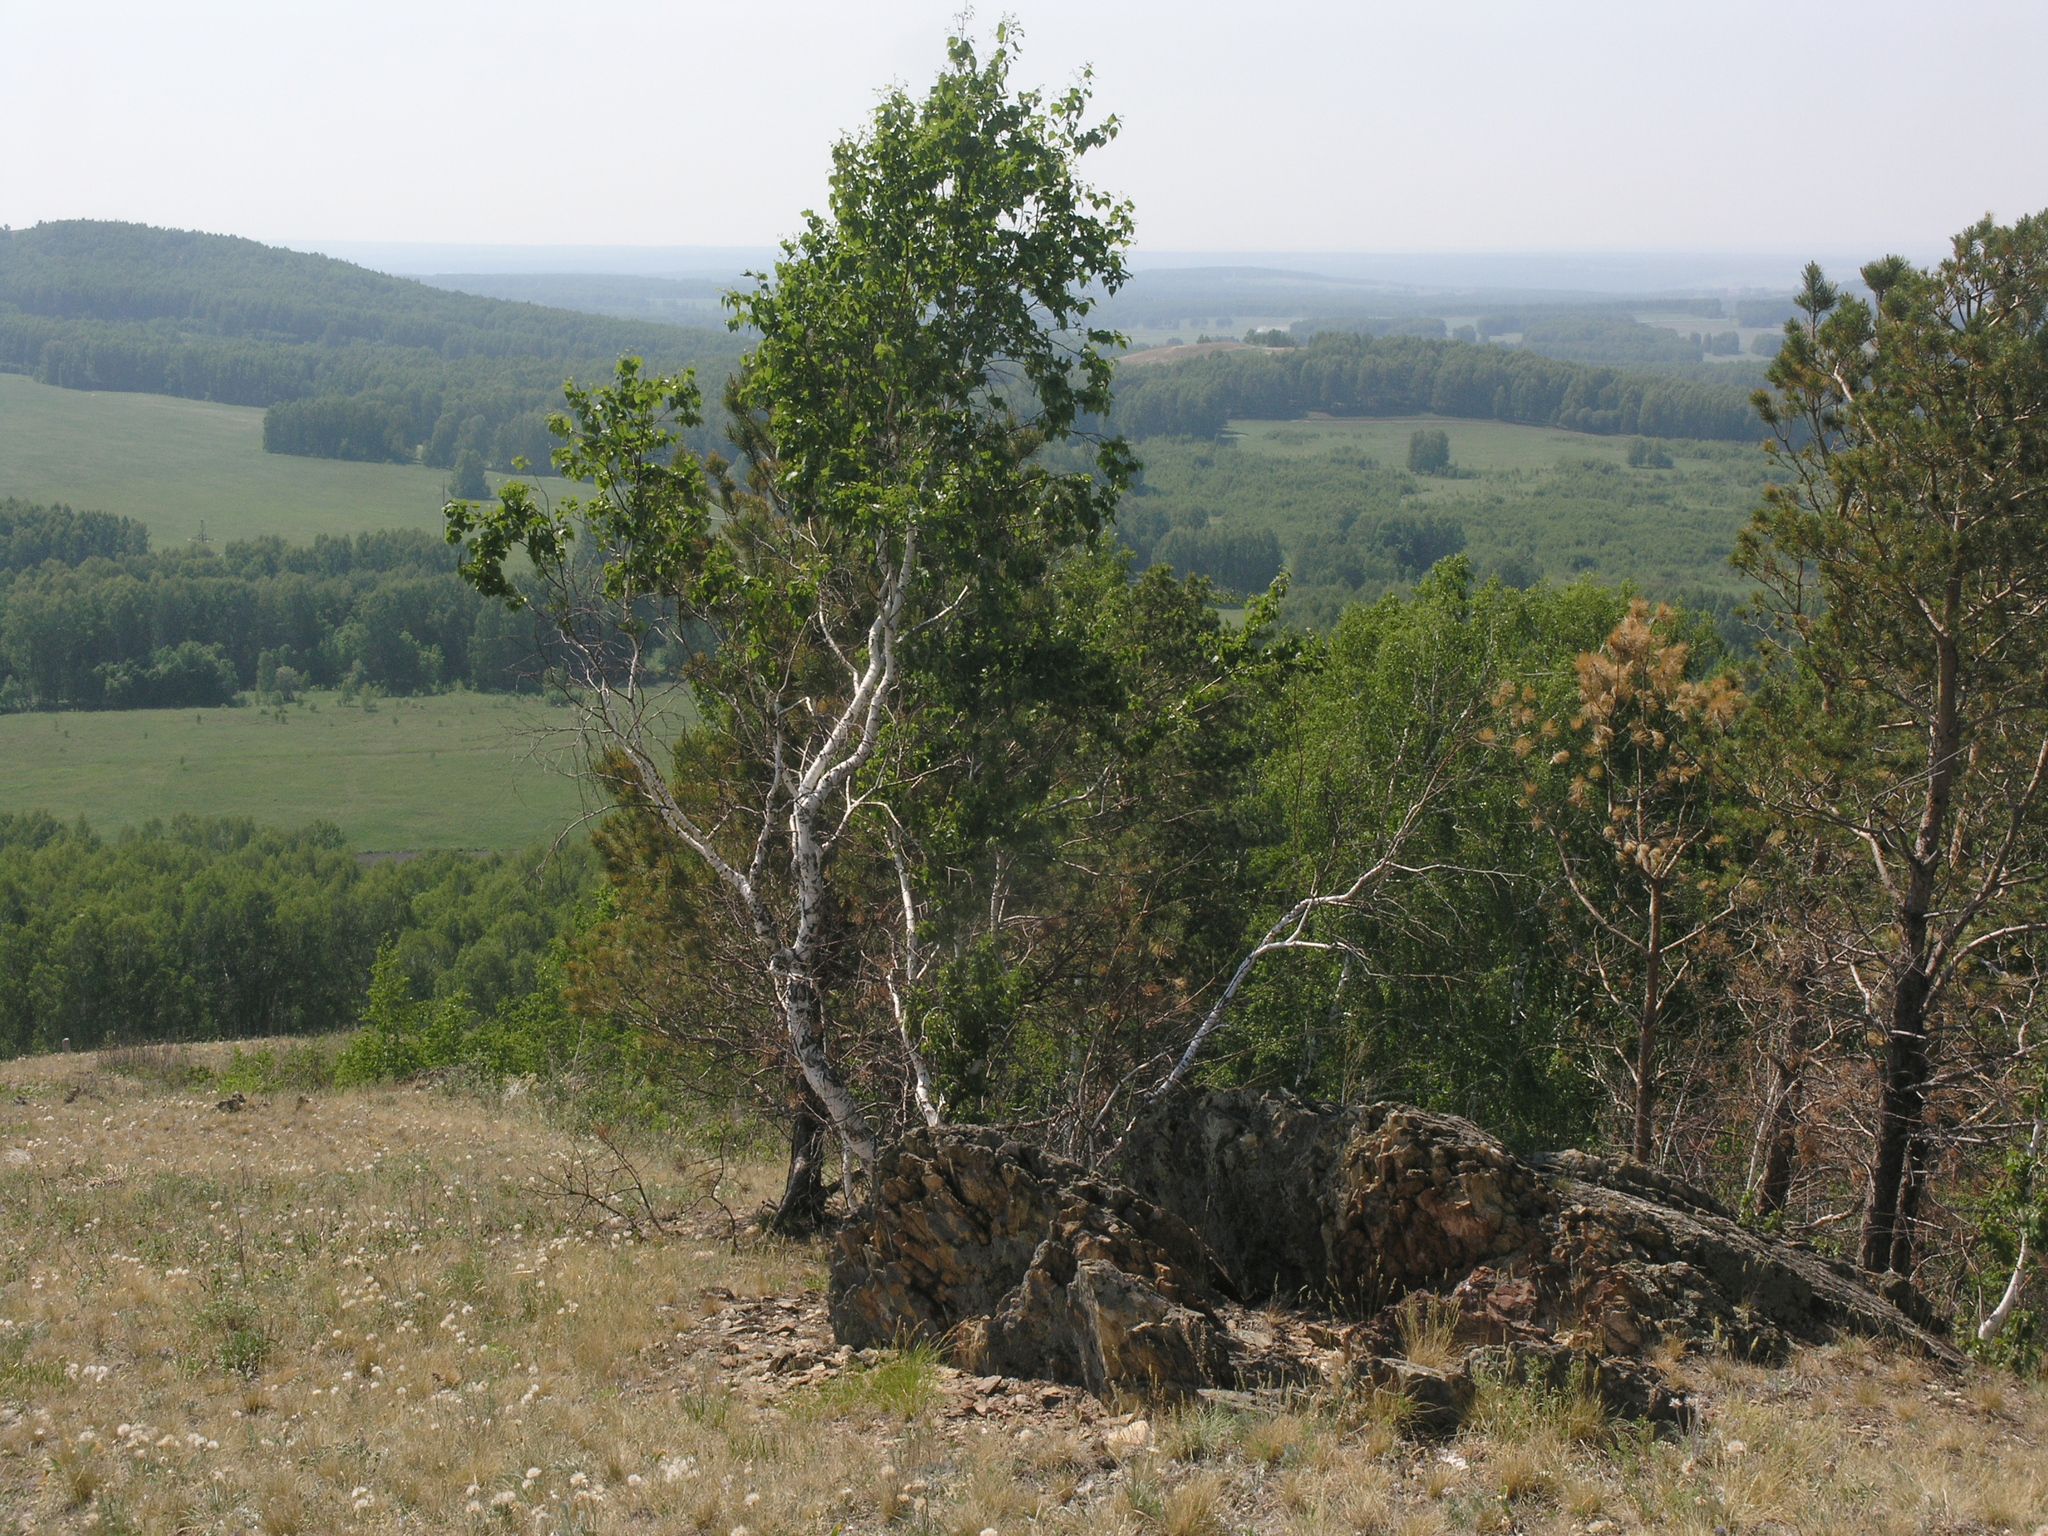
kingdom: Plantae
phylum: Tracheophyta
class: Magnoliopsida
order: Fagales
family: Betulaceae
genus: Betula
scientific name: Betula pendula
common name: Silver birch
